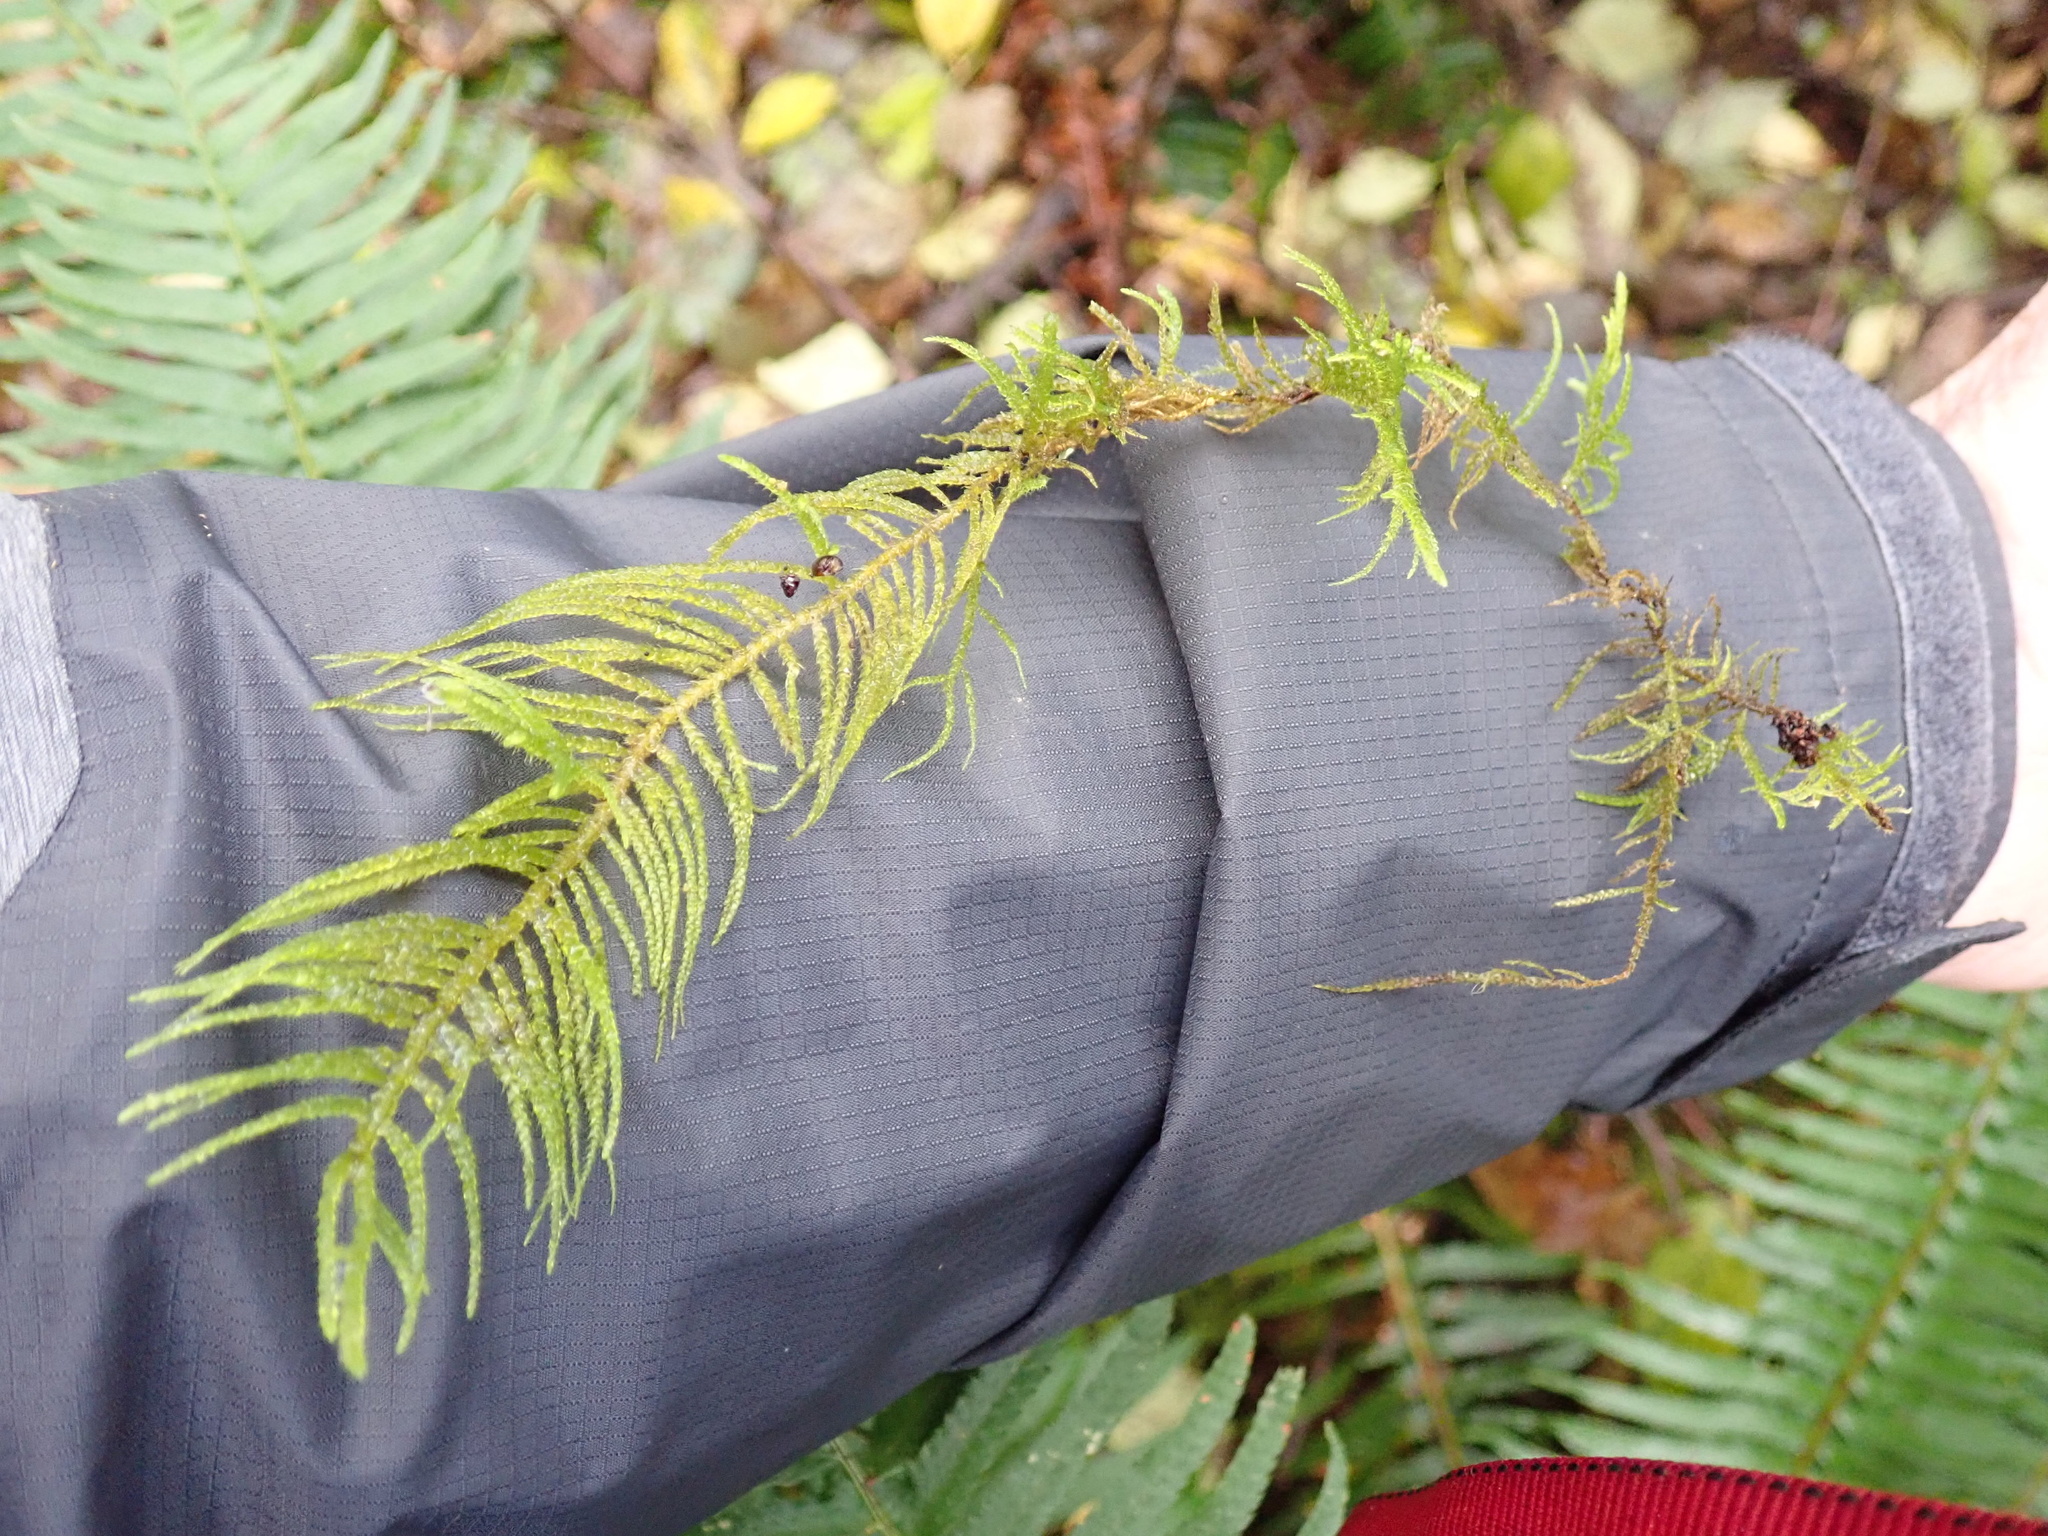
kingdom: Plantae
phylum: Bryophyta
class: Bryopsida
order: Hypnales
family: Brachytheciaceae
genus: Kindbergia
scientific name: Kindbergia oregana
